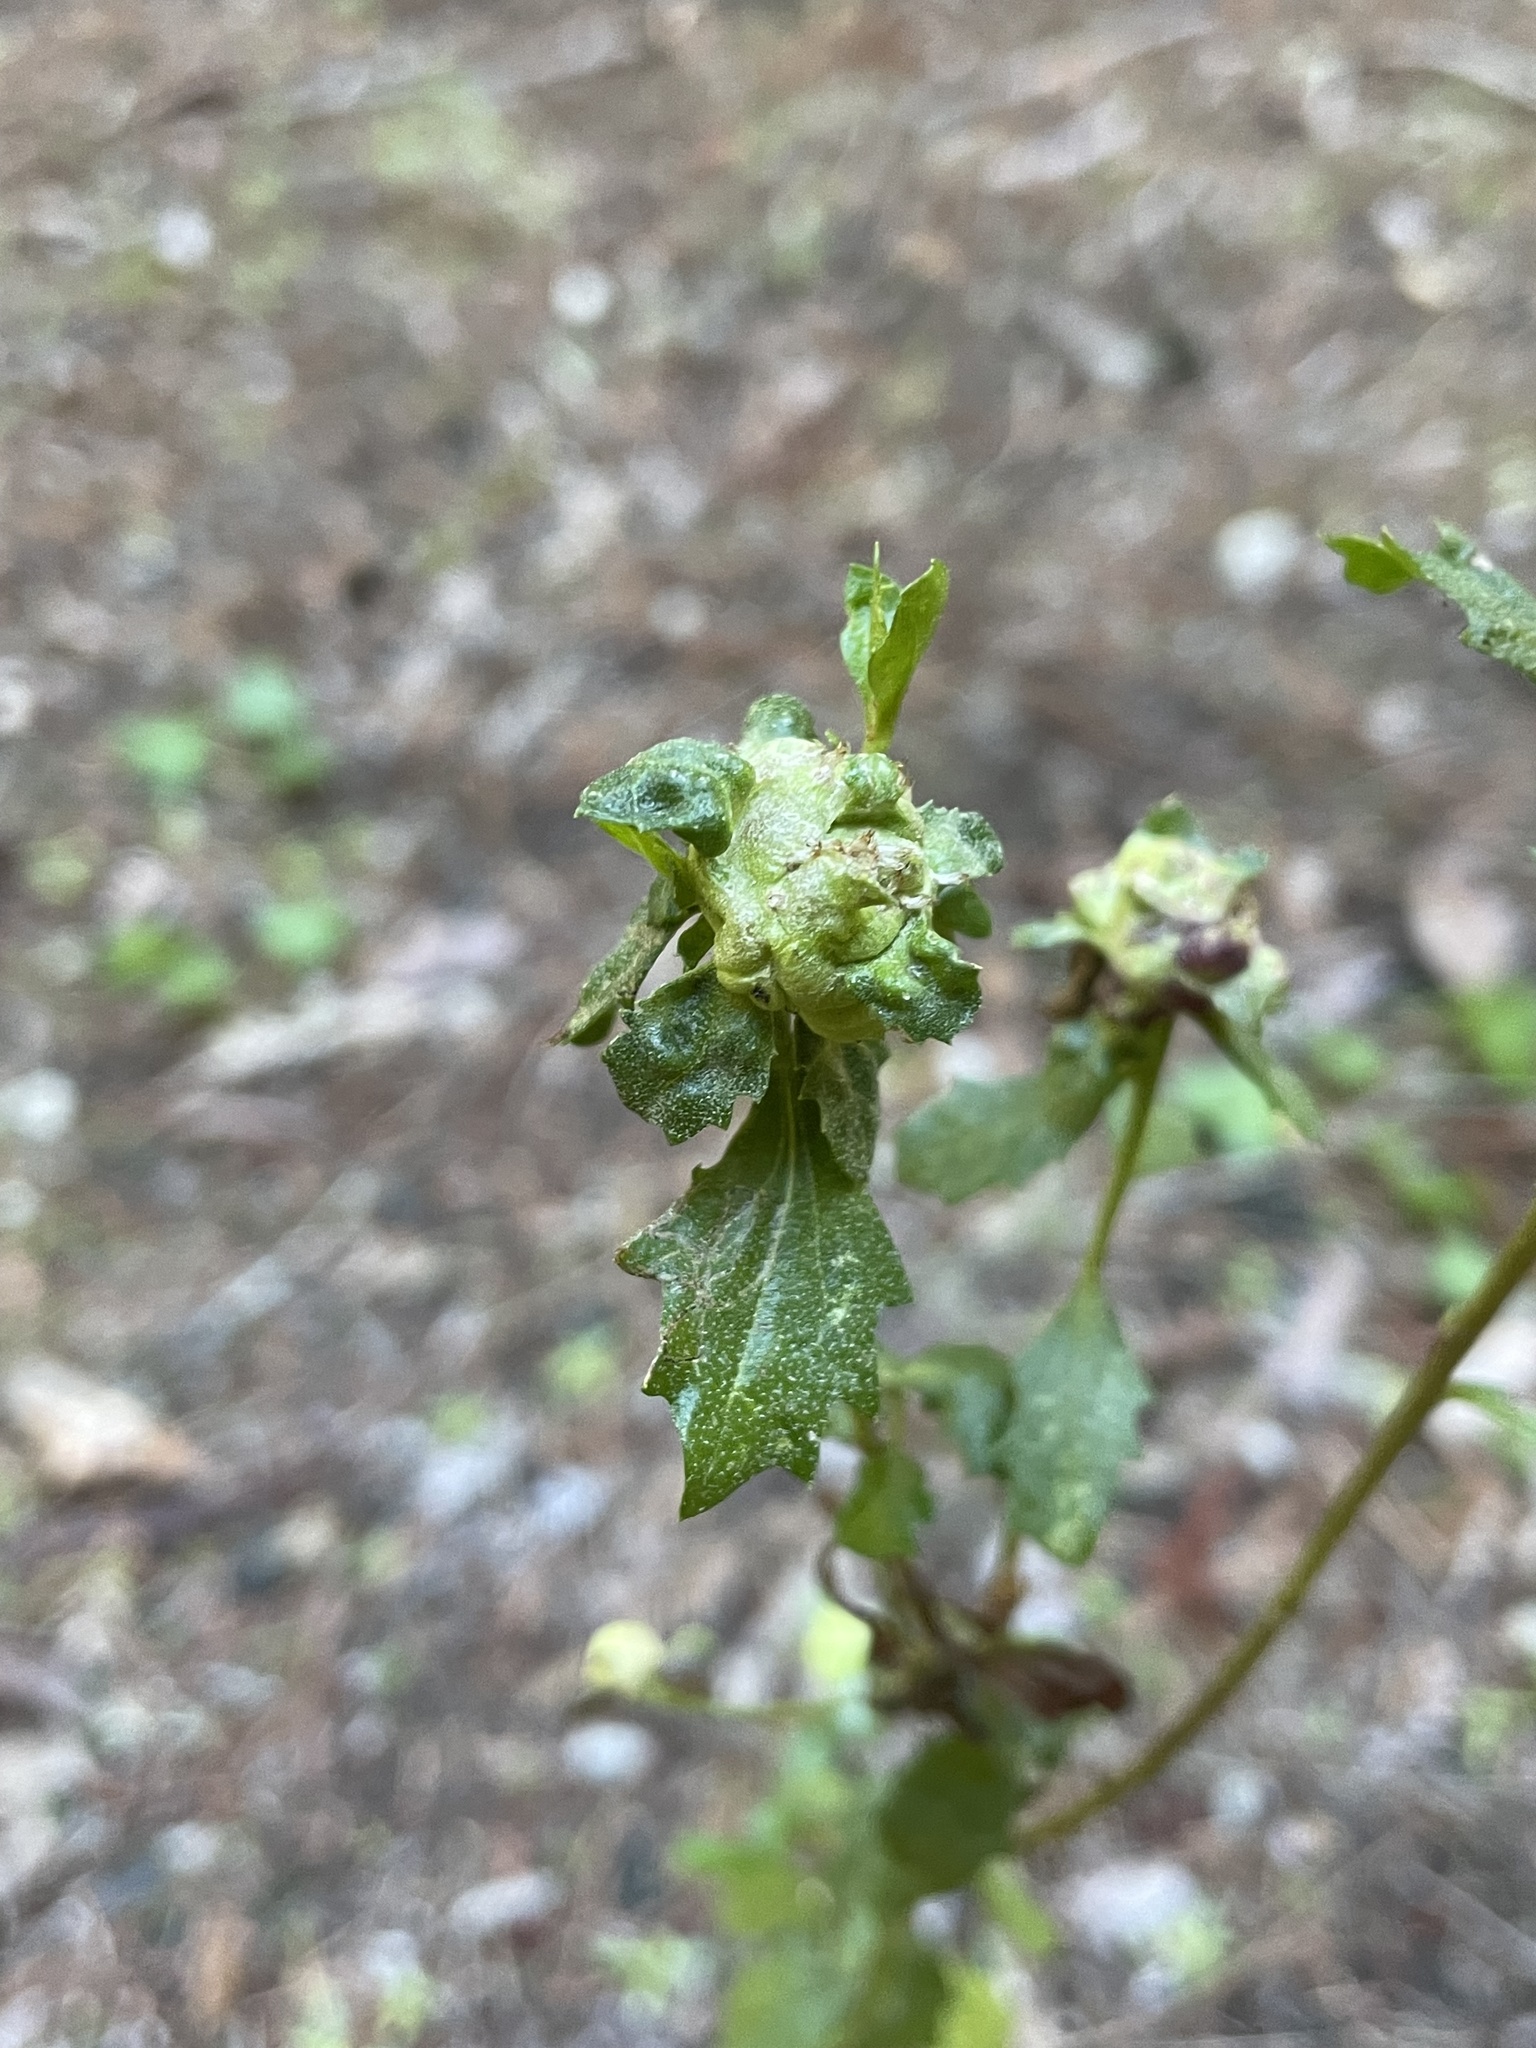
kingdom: Animalia
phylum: Arthropoda
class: Insecta
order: Diptera
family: Cecidomyiidae
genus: Rhopalomyia
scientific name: Rhopalomyia californica
